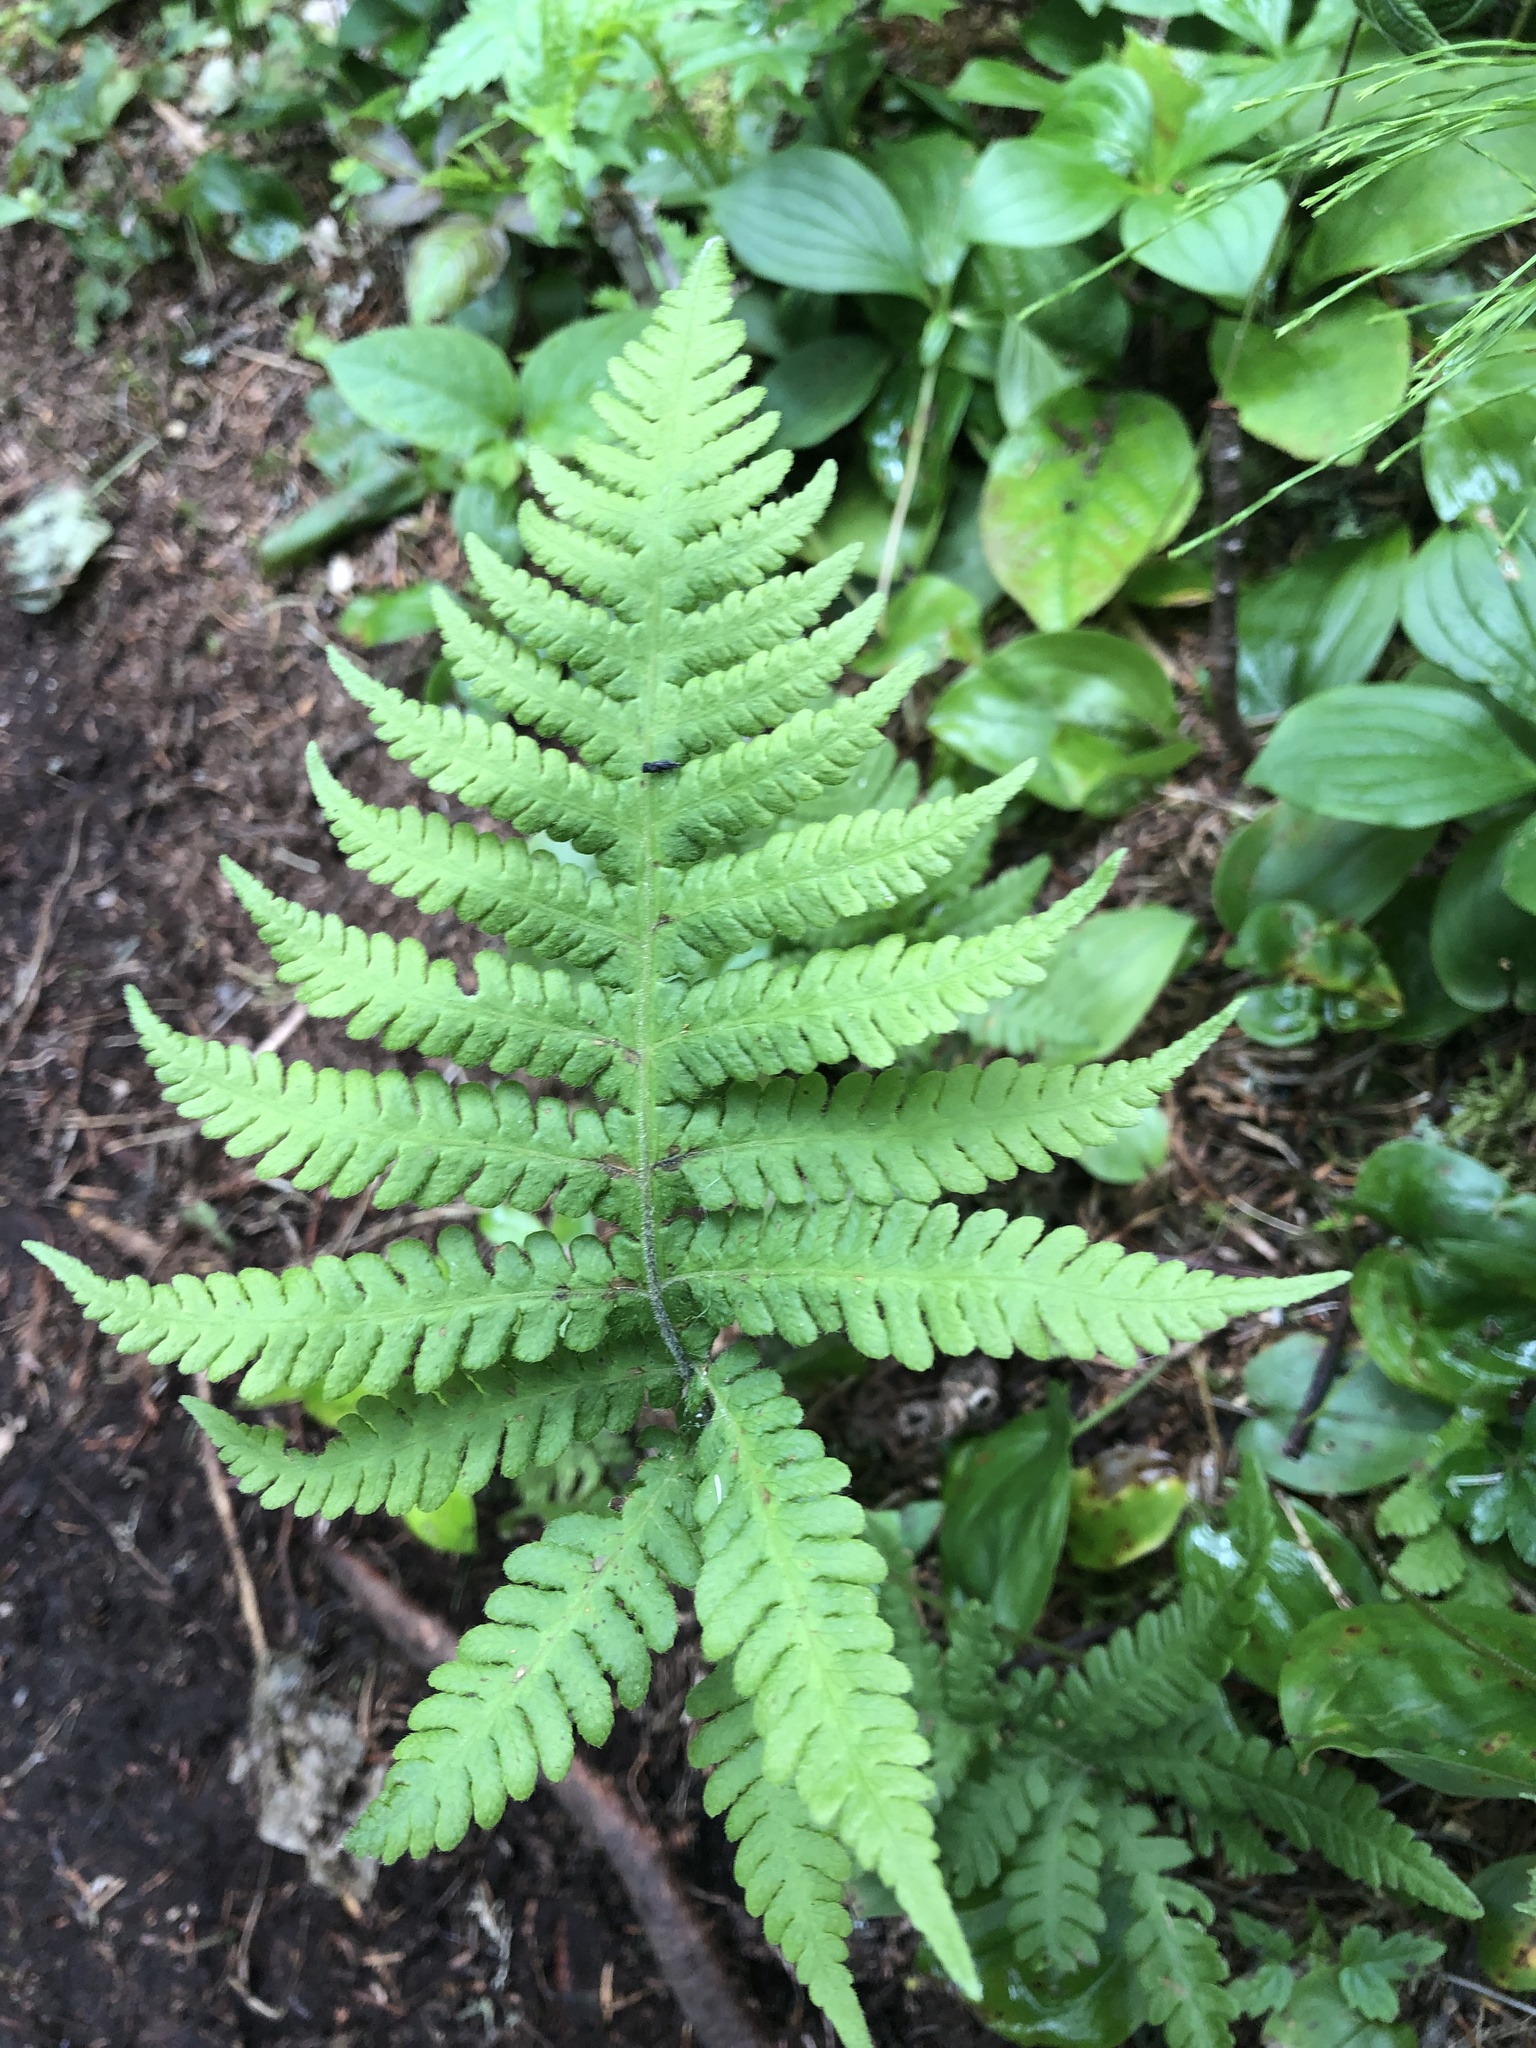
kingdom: Plantae
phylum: Tracheophyta
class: Polypodiopsida
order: Polypodiales
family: Thelypteridaceae
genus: Phegopteris
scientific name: Phegopteris connectilis
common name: Beech fern
